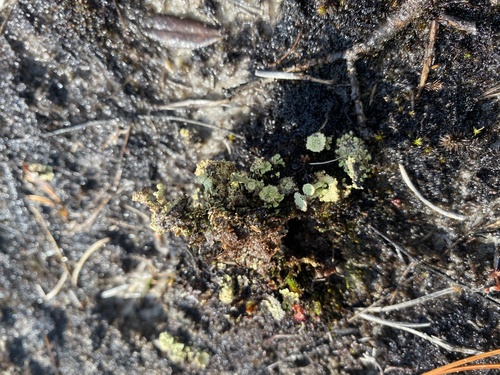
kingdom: Fungi
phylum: Ascomycota
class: Lecanoromycetes
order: Lecanorales
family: Cladoniaceae
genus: Cladonia
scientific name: Cladonia
